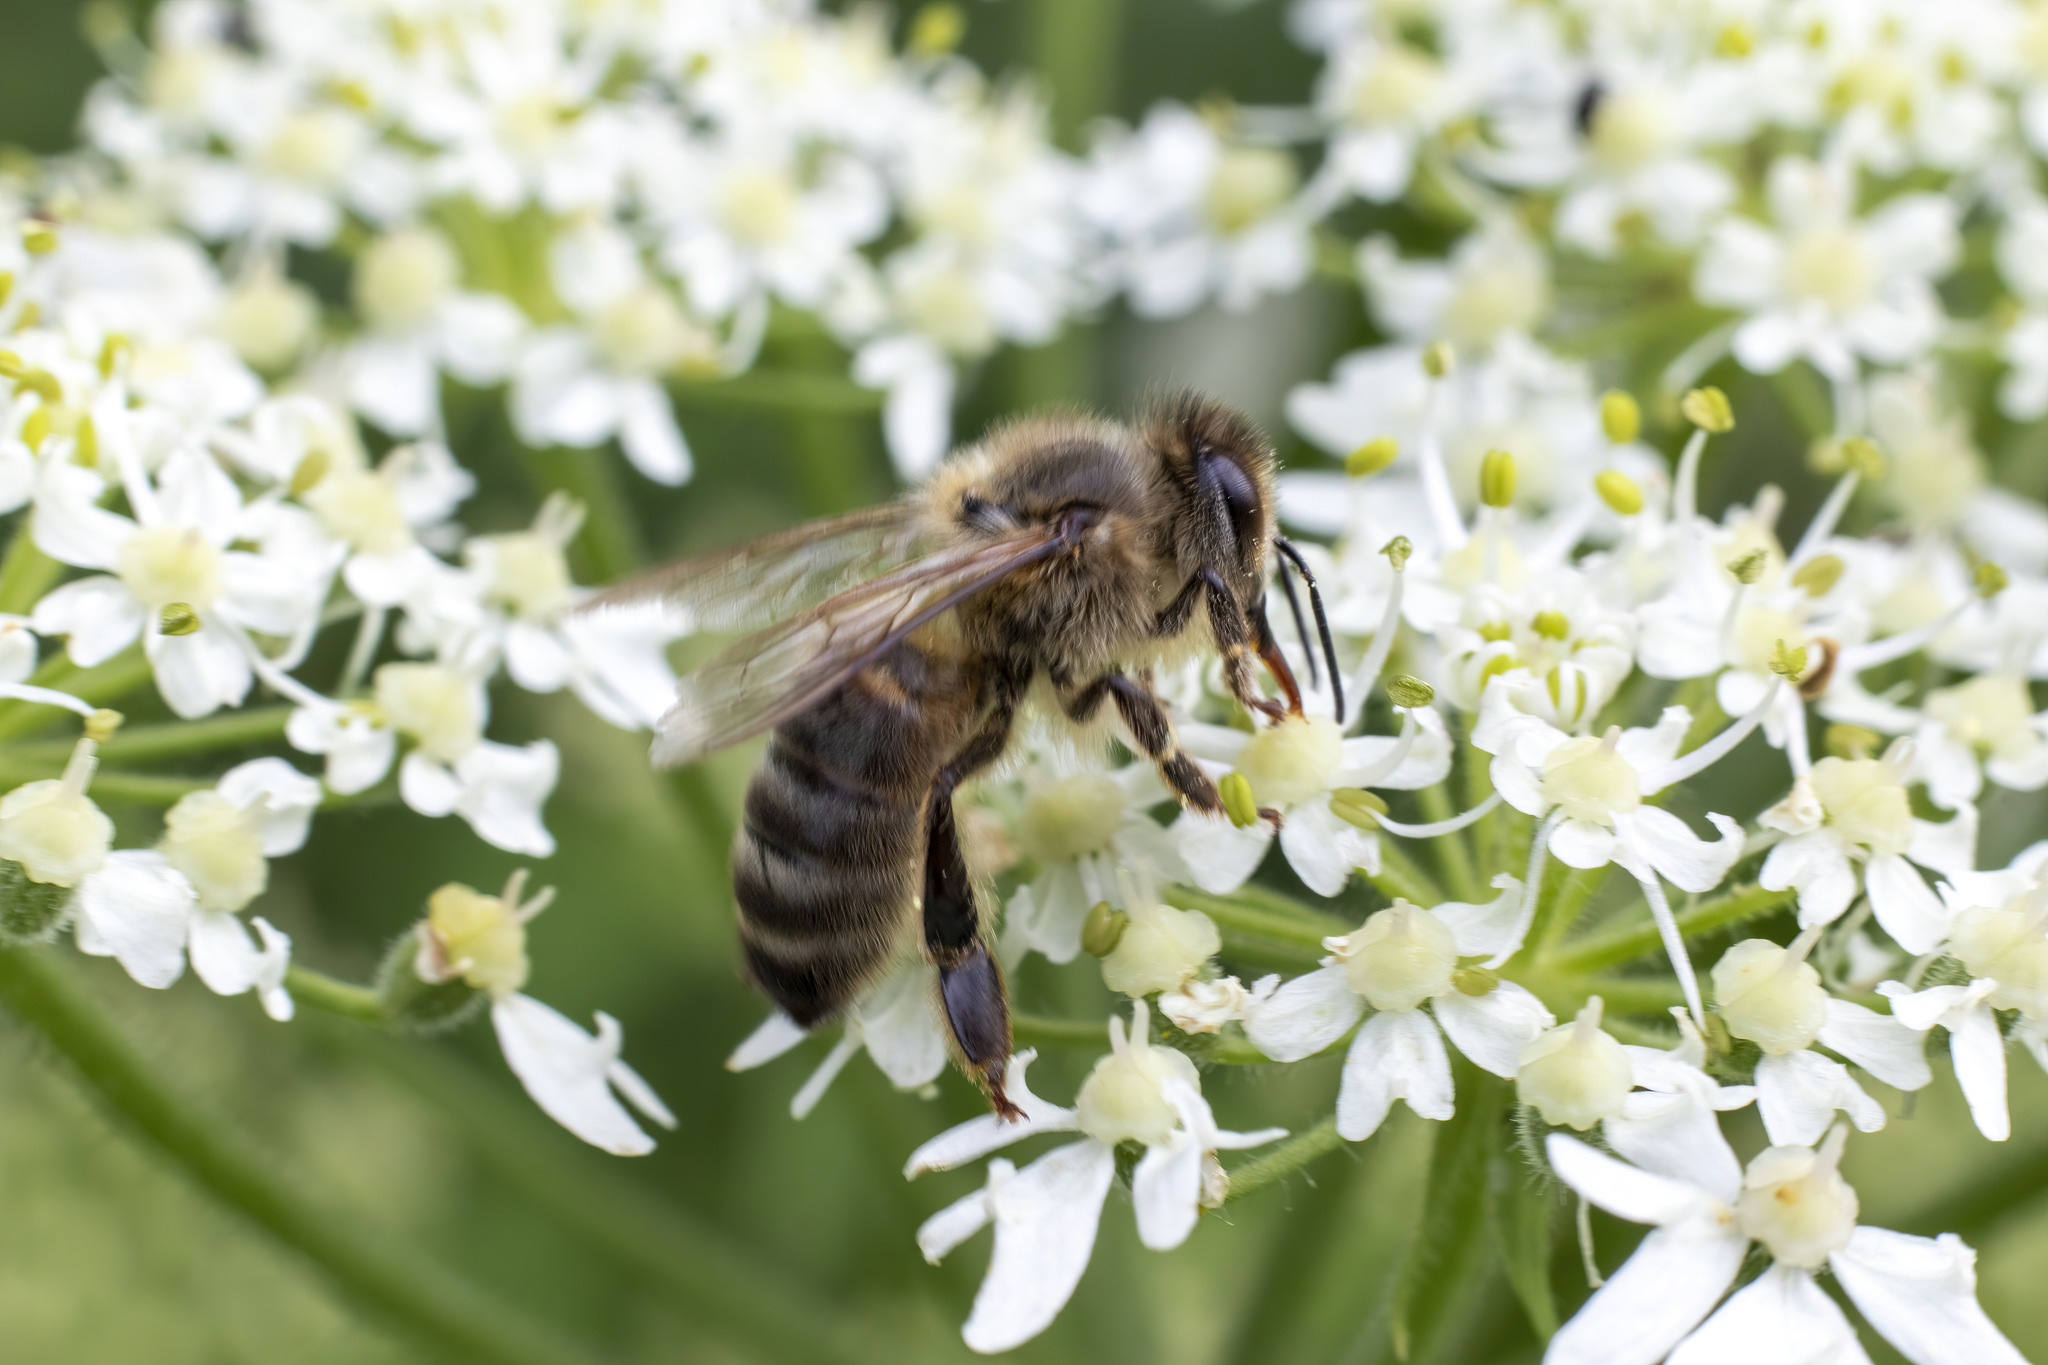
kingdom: Animalia
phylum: Arthropoda
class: Insecta
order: Hymenoptera
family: Apidae
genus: Apis
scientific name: Apis mellifera
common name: Honey bee
